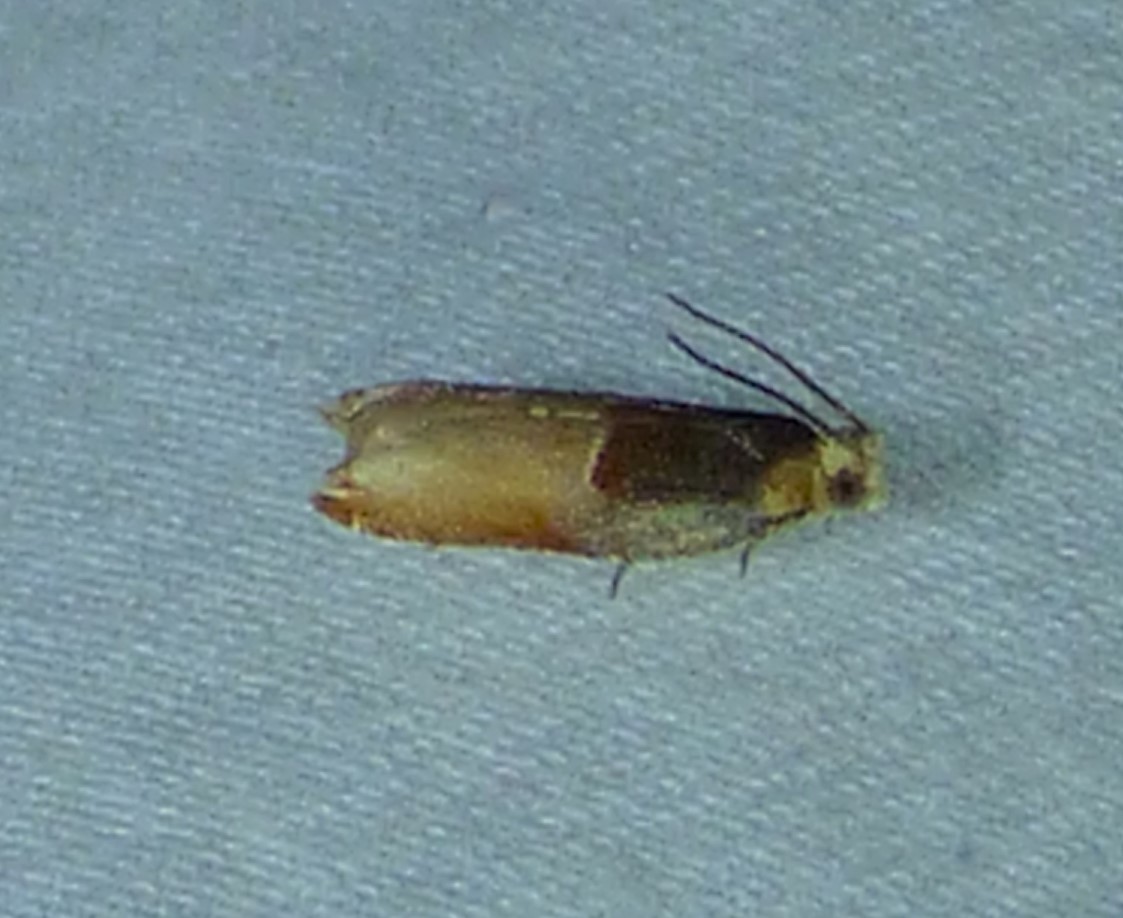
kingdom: Animalia
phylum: Arthropoda
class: Insecta
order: Lepidoptera
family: Tortricidae
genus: Ancylis
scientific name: Ancylis divisana
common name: Two-toned ancylis moth
